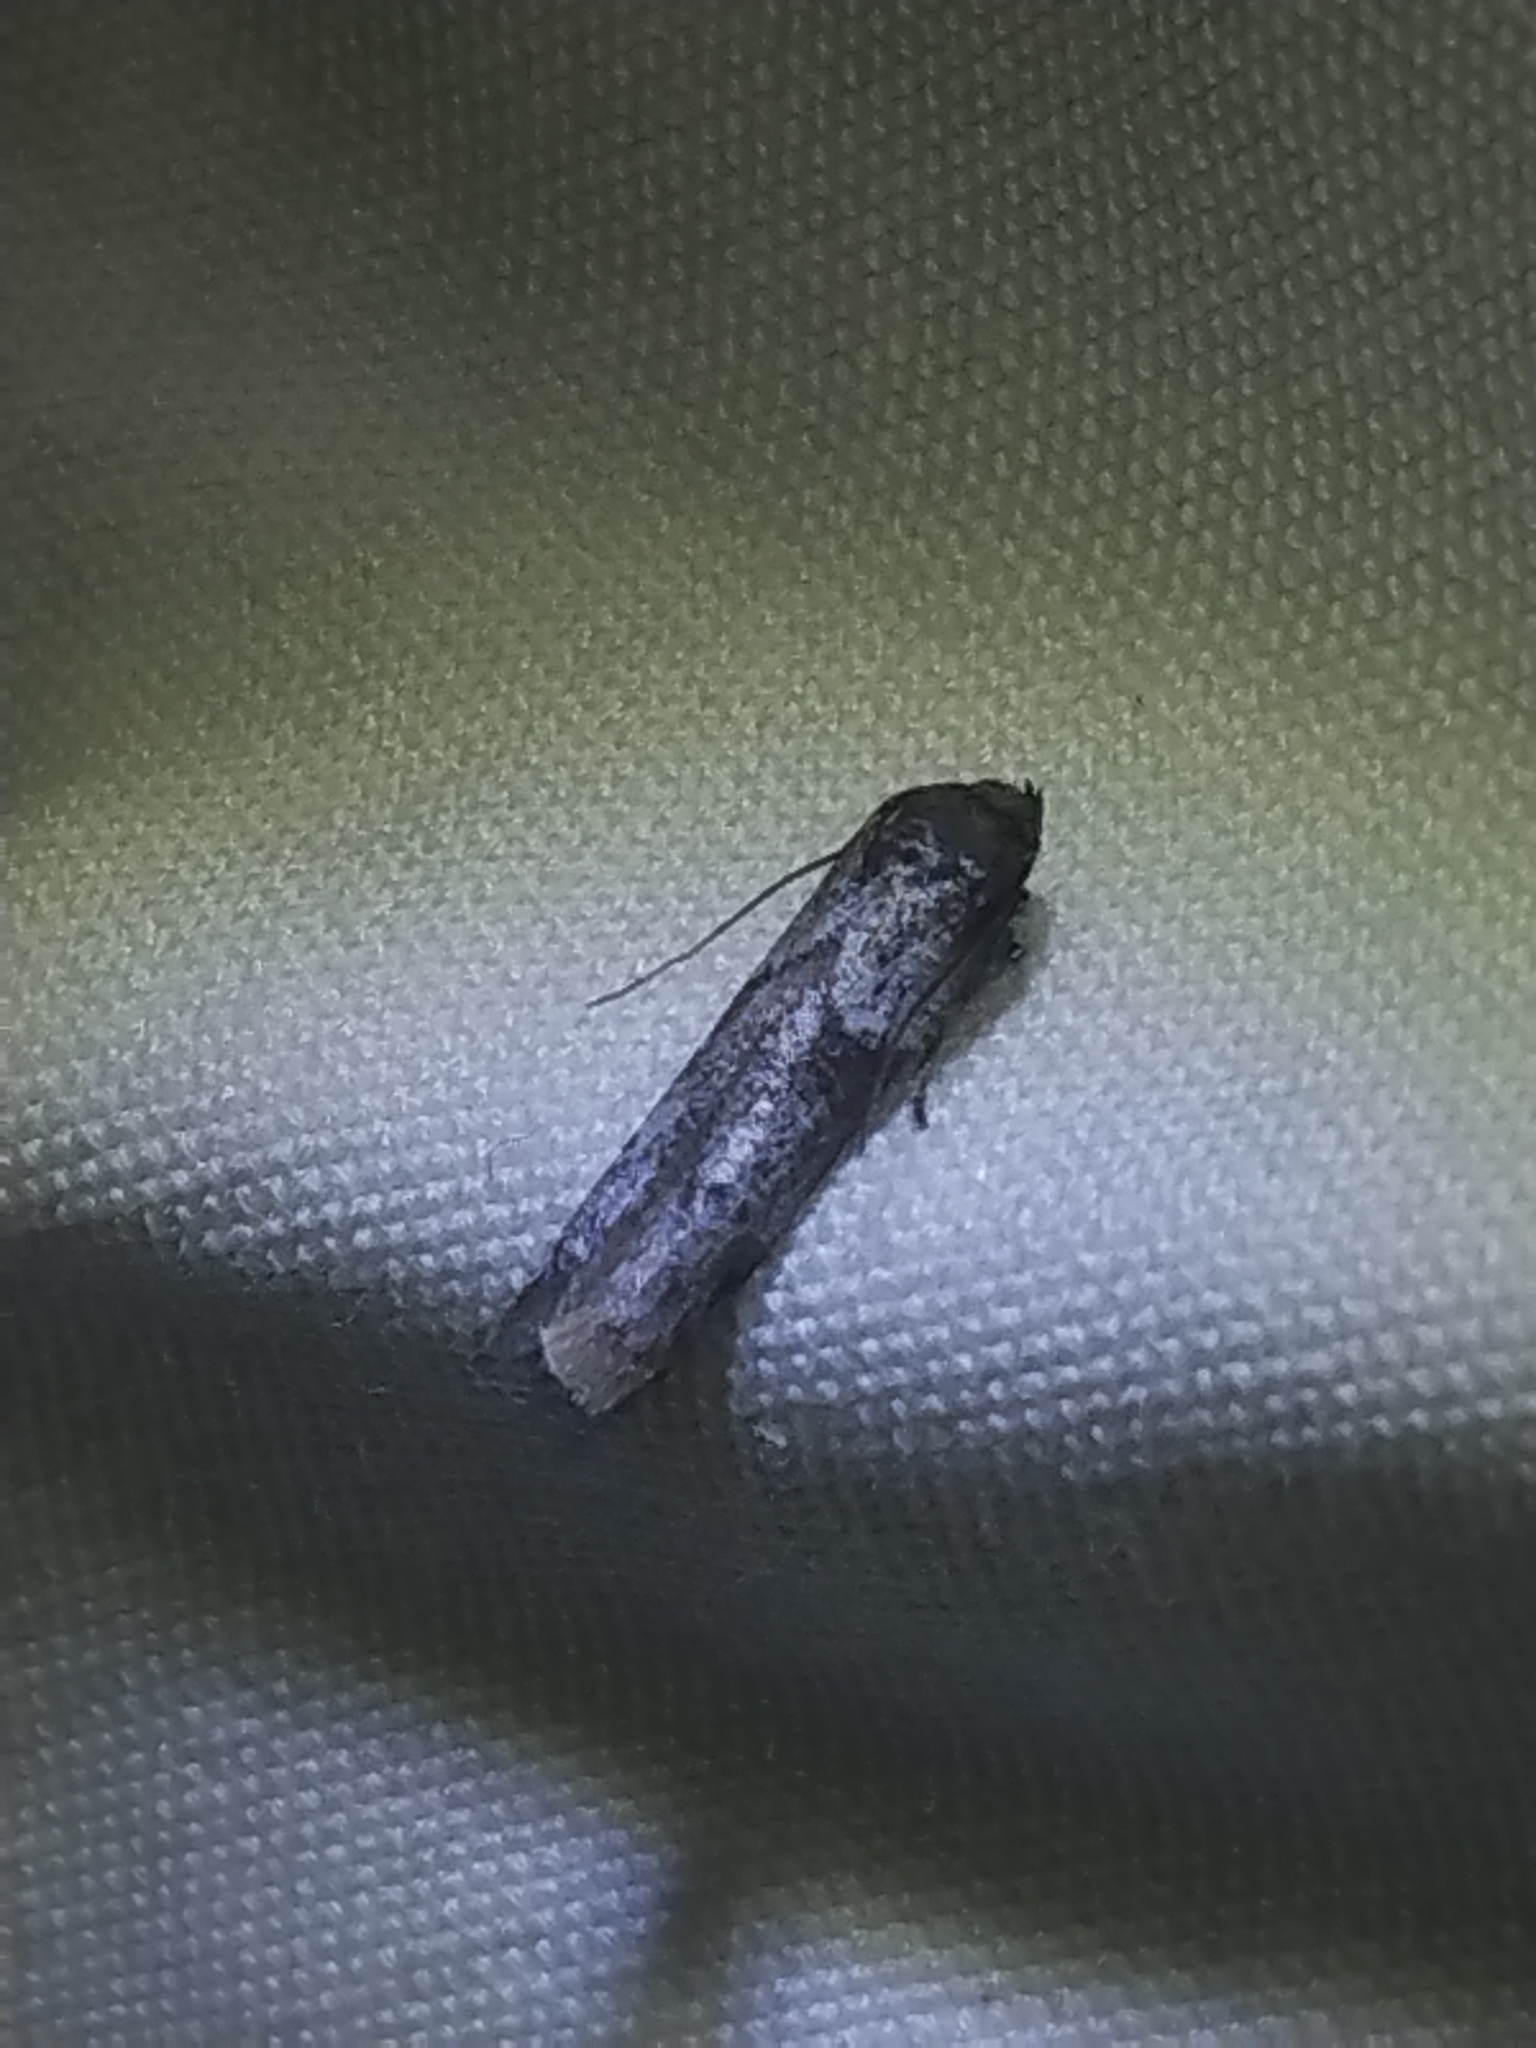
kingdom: Animalia
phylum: Arthropoda
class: Insecta
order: Lepidoptera
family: Blastobasidae
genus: Blastobasis
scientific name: Blastobasis glandulella
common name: Acorn moth
